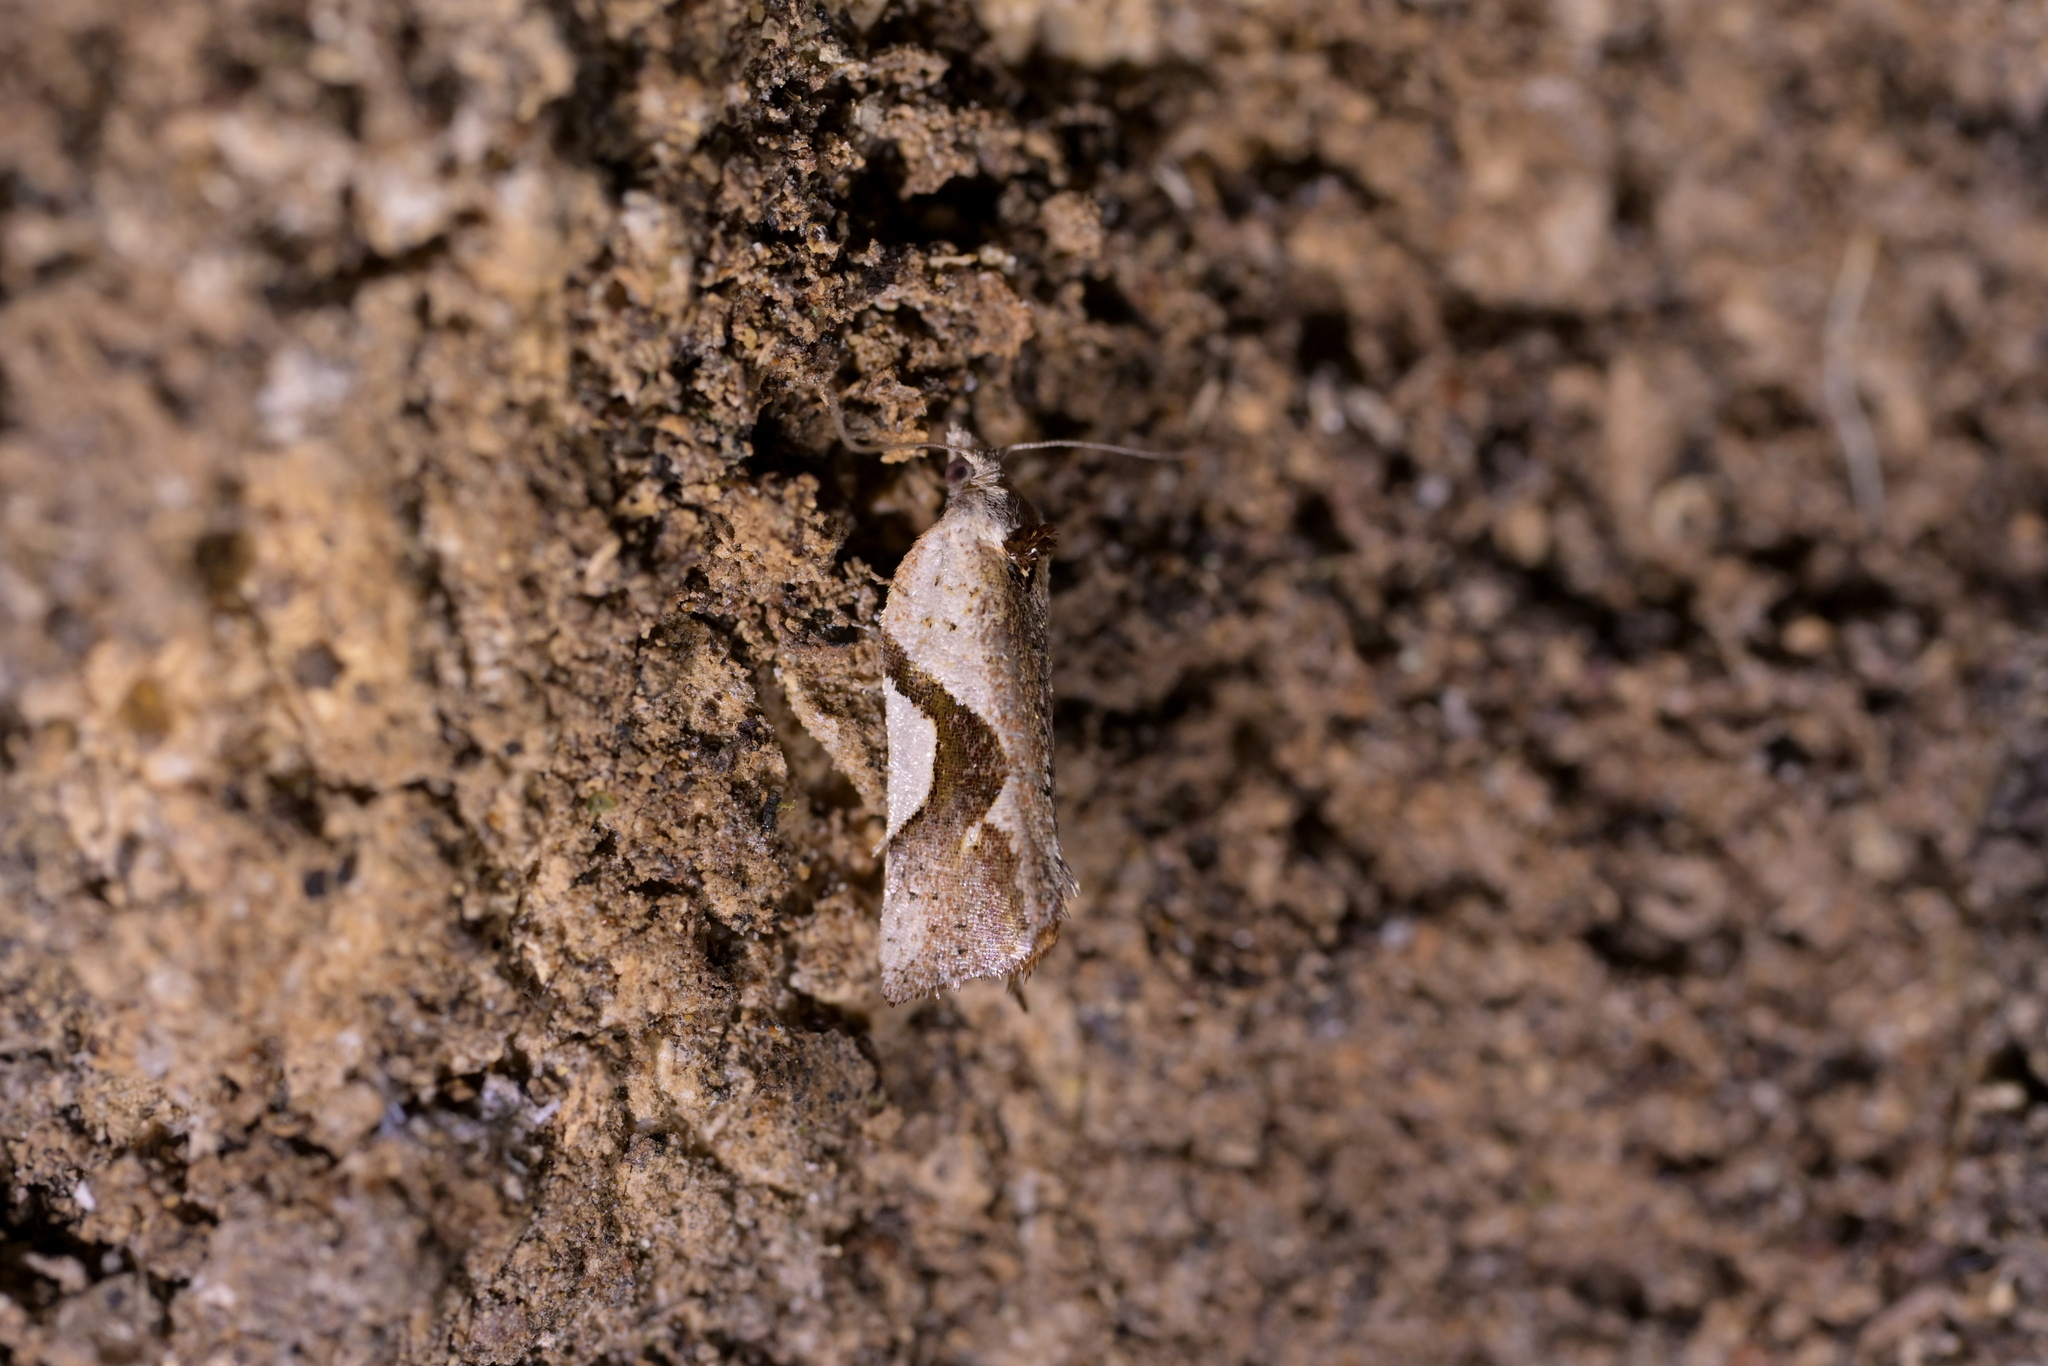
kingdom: Animalia
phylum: Arthropoda
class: Insecta
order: Lepidoptera
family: Tortricidae
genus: Pyrgotis
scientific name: Pyrgotis plagiatana
